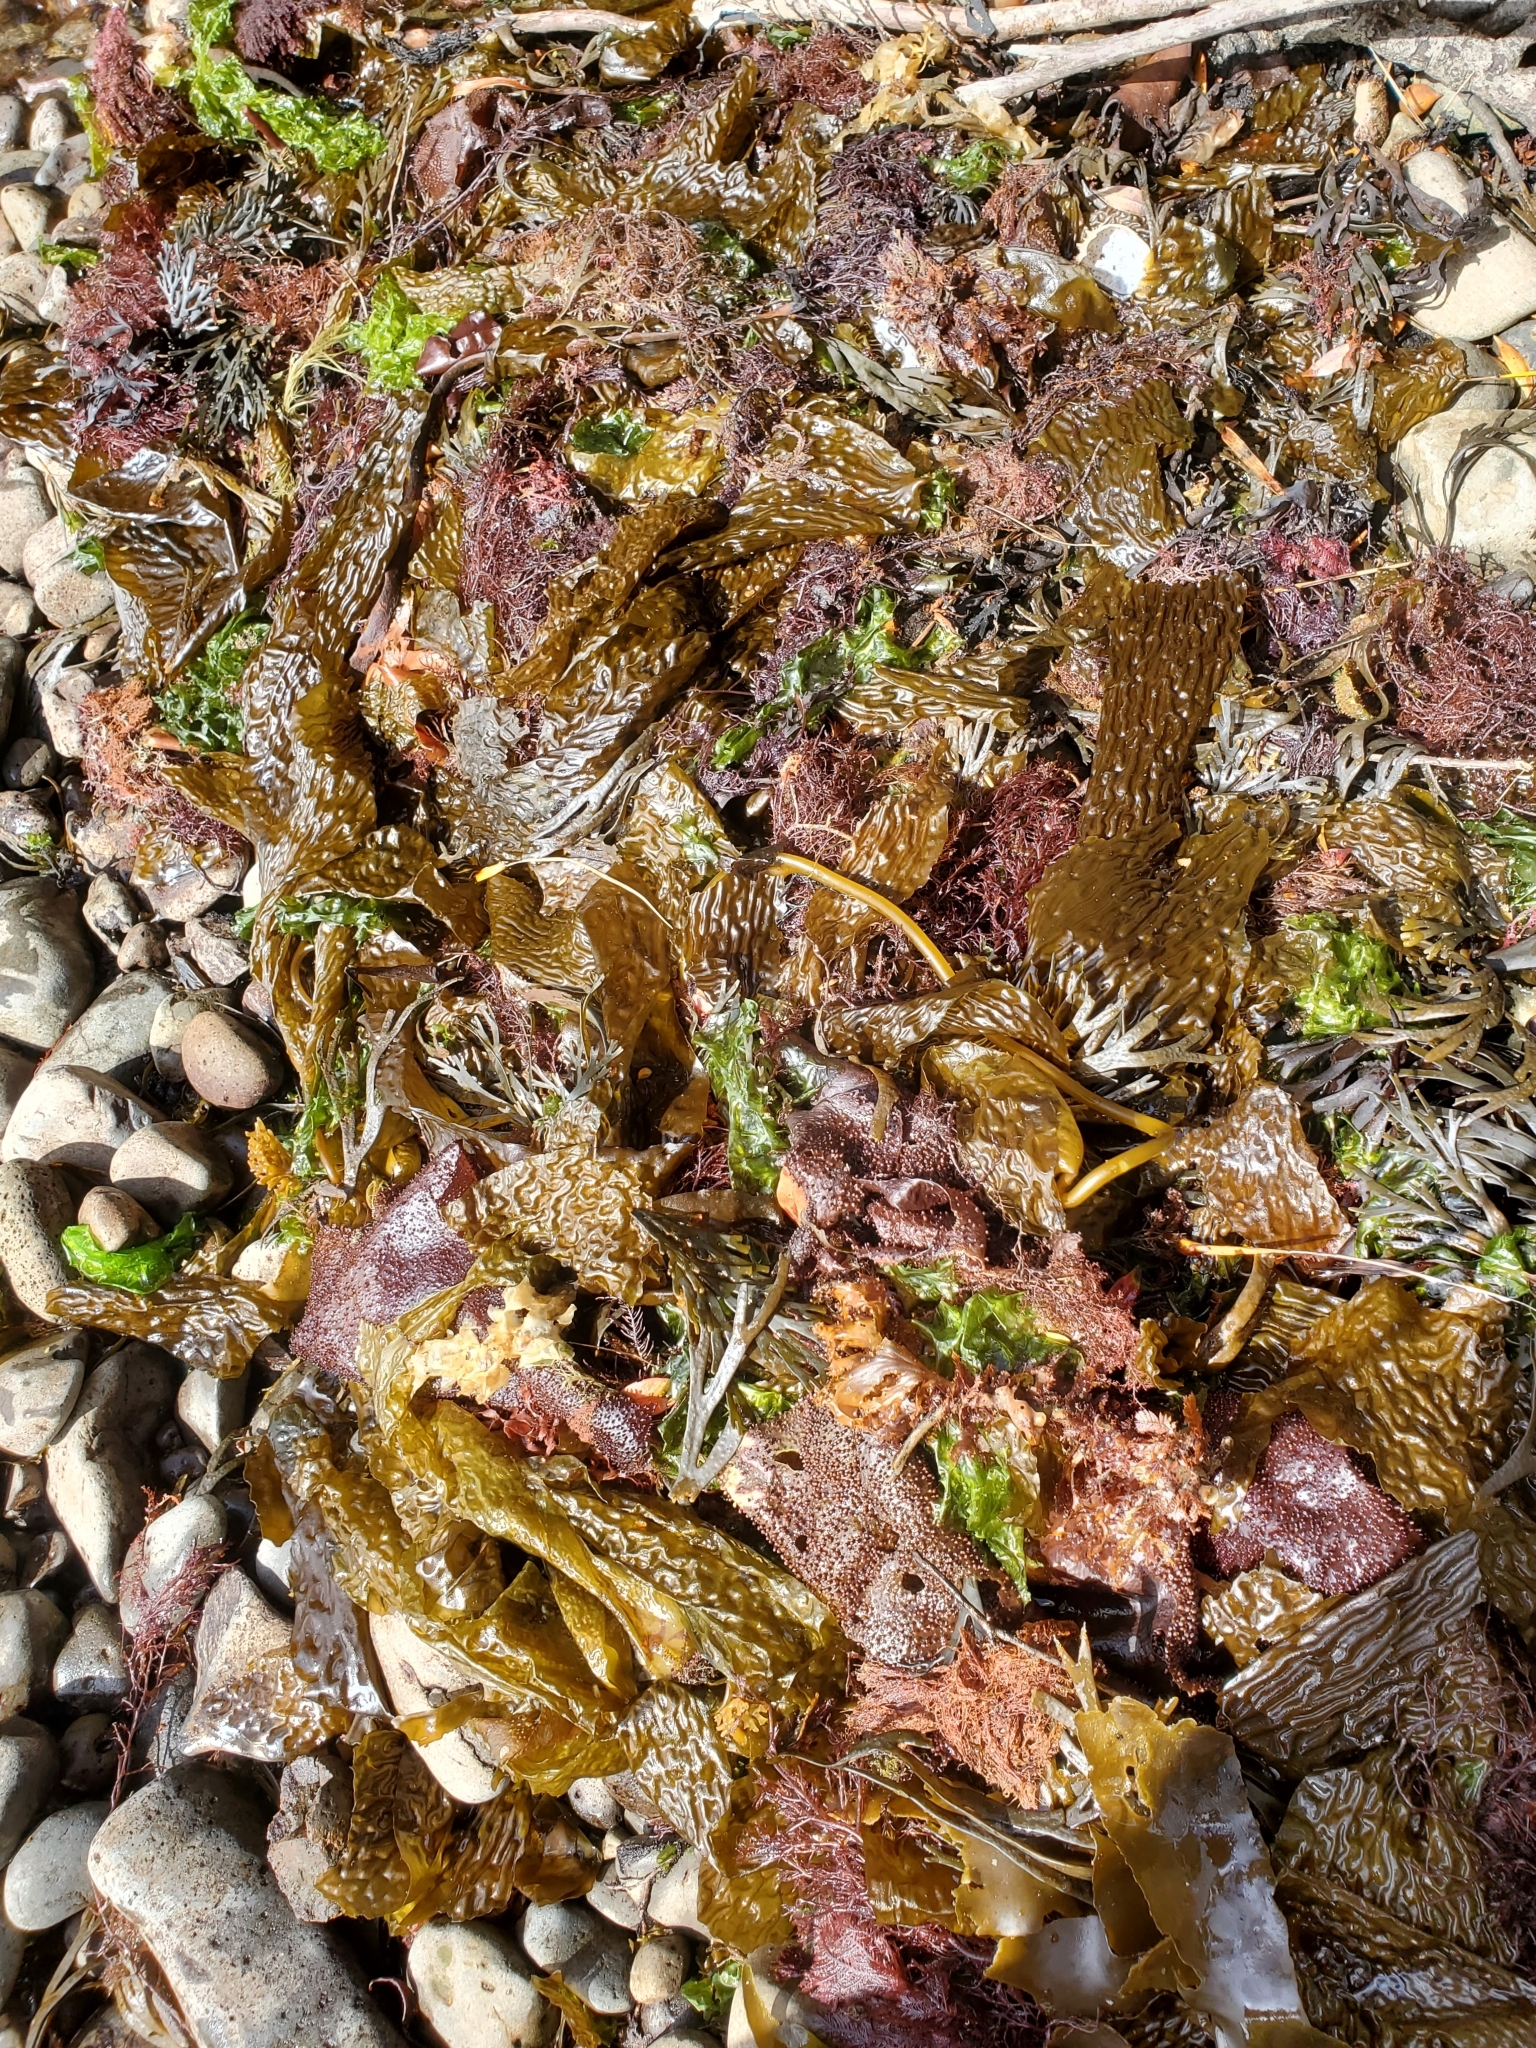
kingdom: Chromista
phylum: Ochrophyta
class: Phaeophyceae
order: Laminariales
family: Laminariaceae
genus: Macrocystis
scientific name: Macrocystis pyrifera
